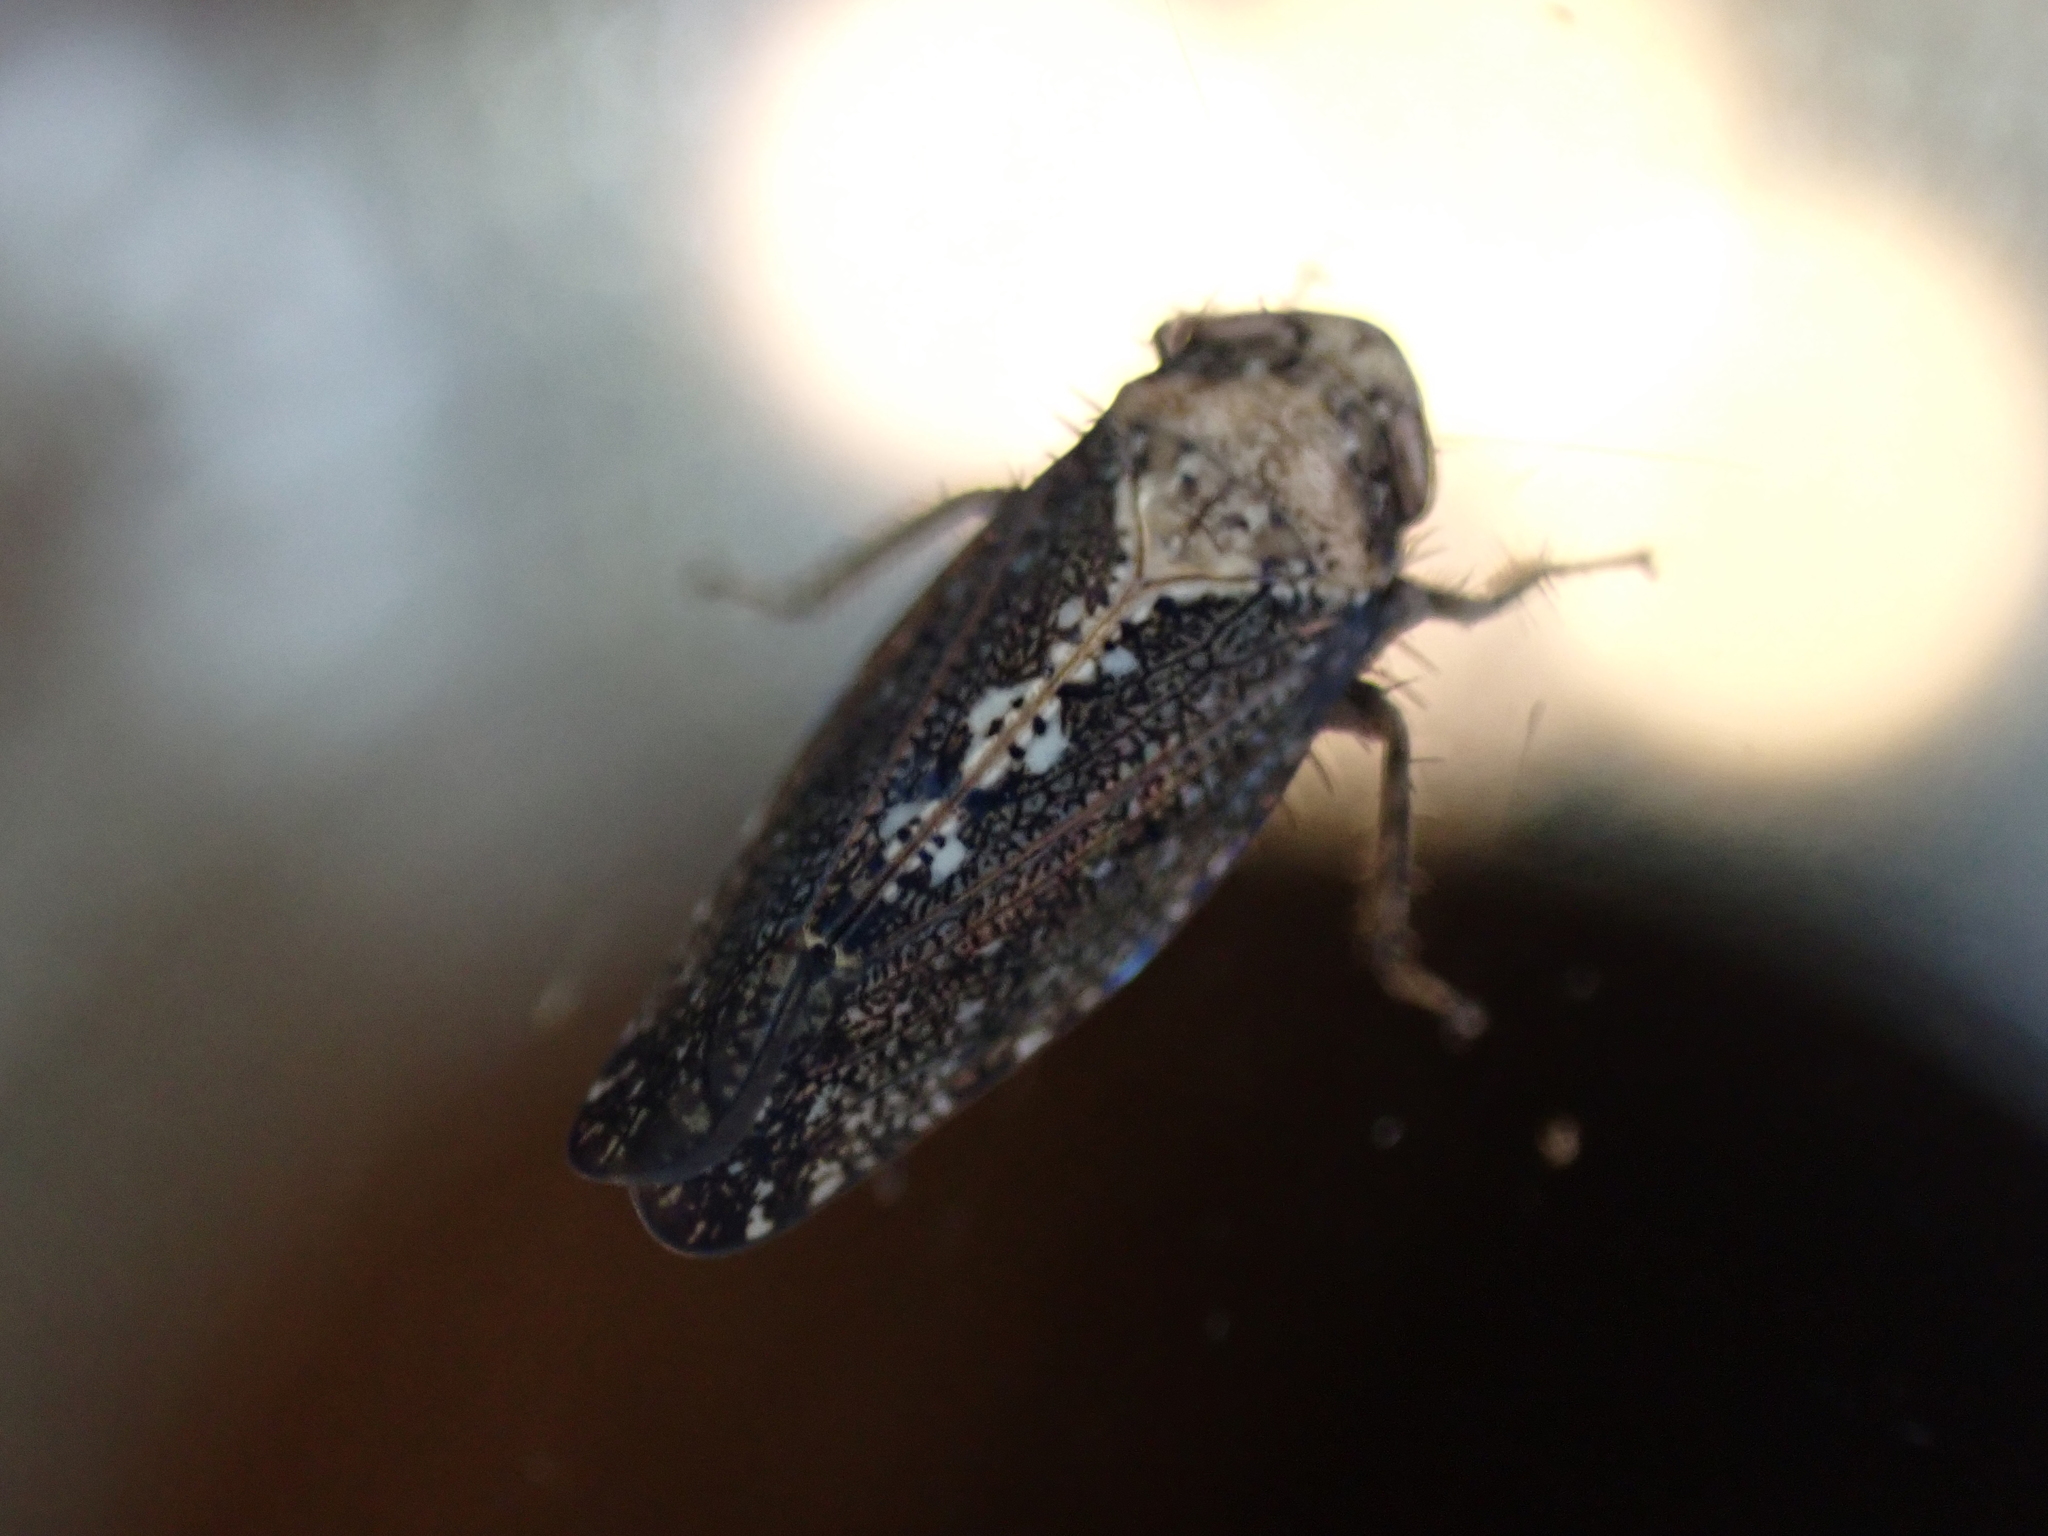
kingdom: Animalia
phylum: Arthropoda
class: Insecta
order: Hemiptera
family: Cicadellidae
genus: Excultanus
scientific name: Excultanus excultus
